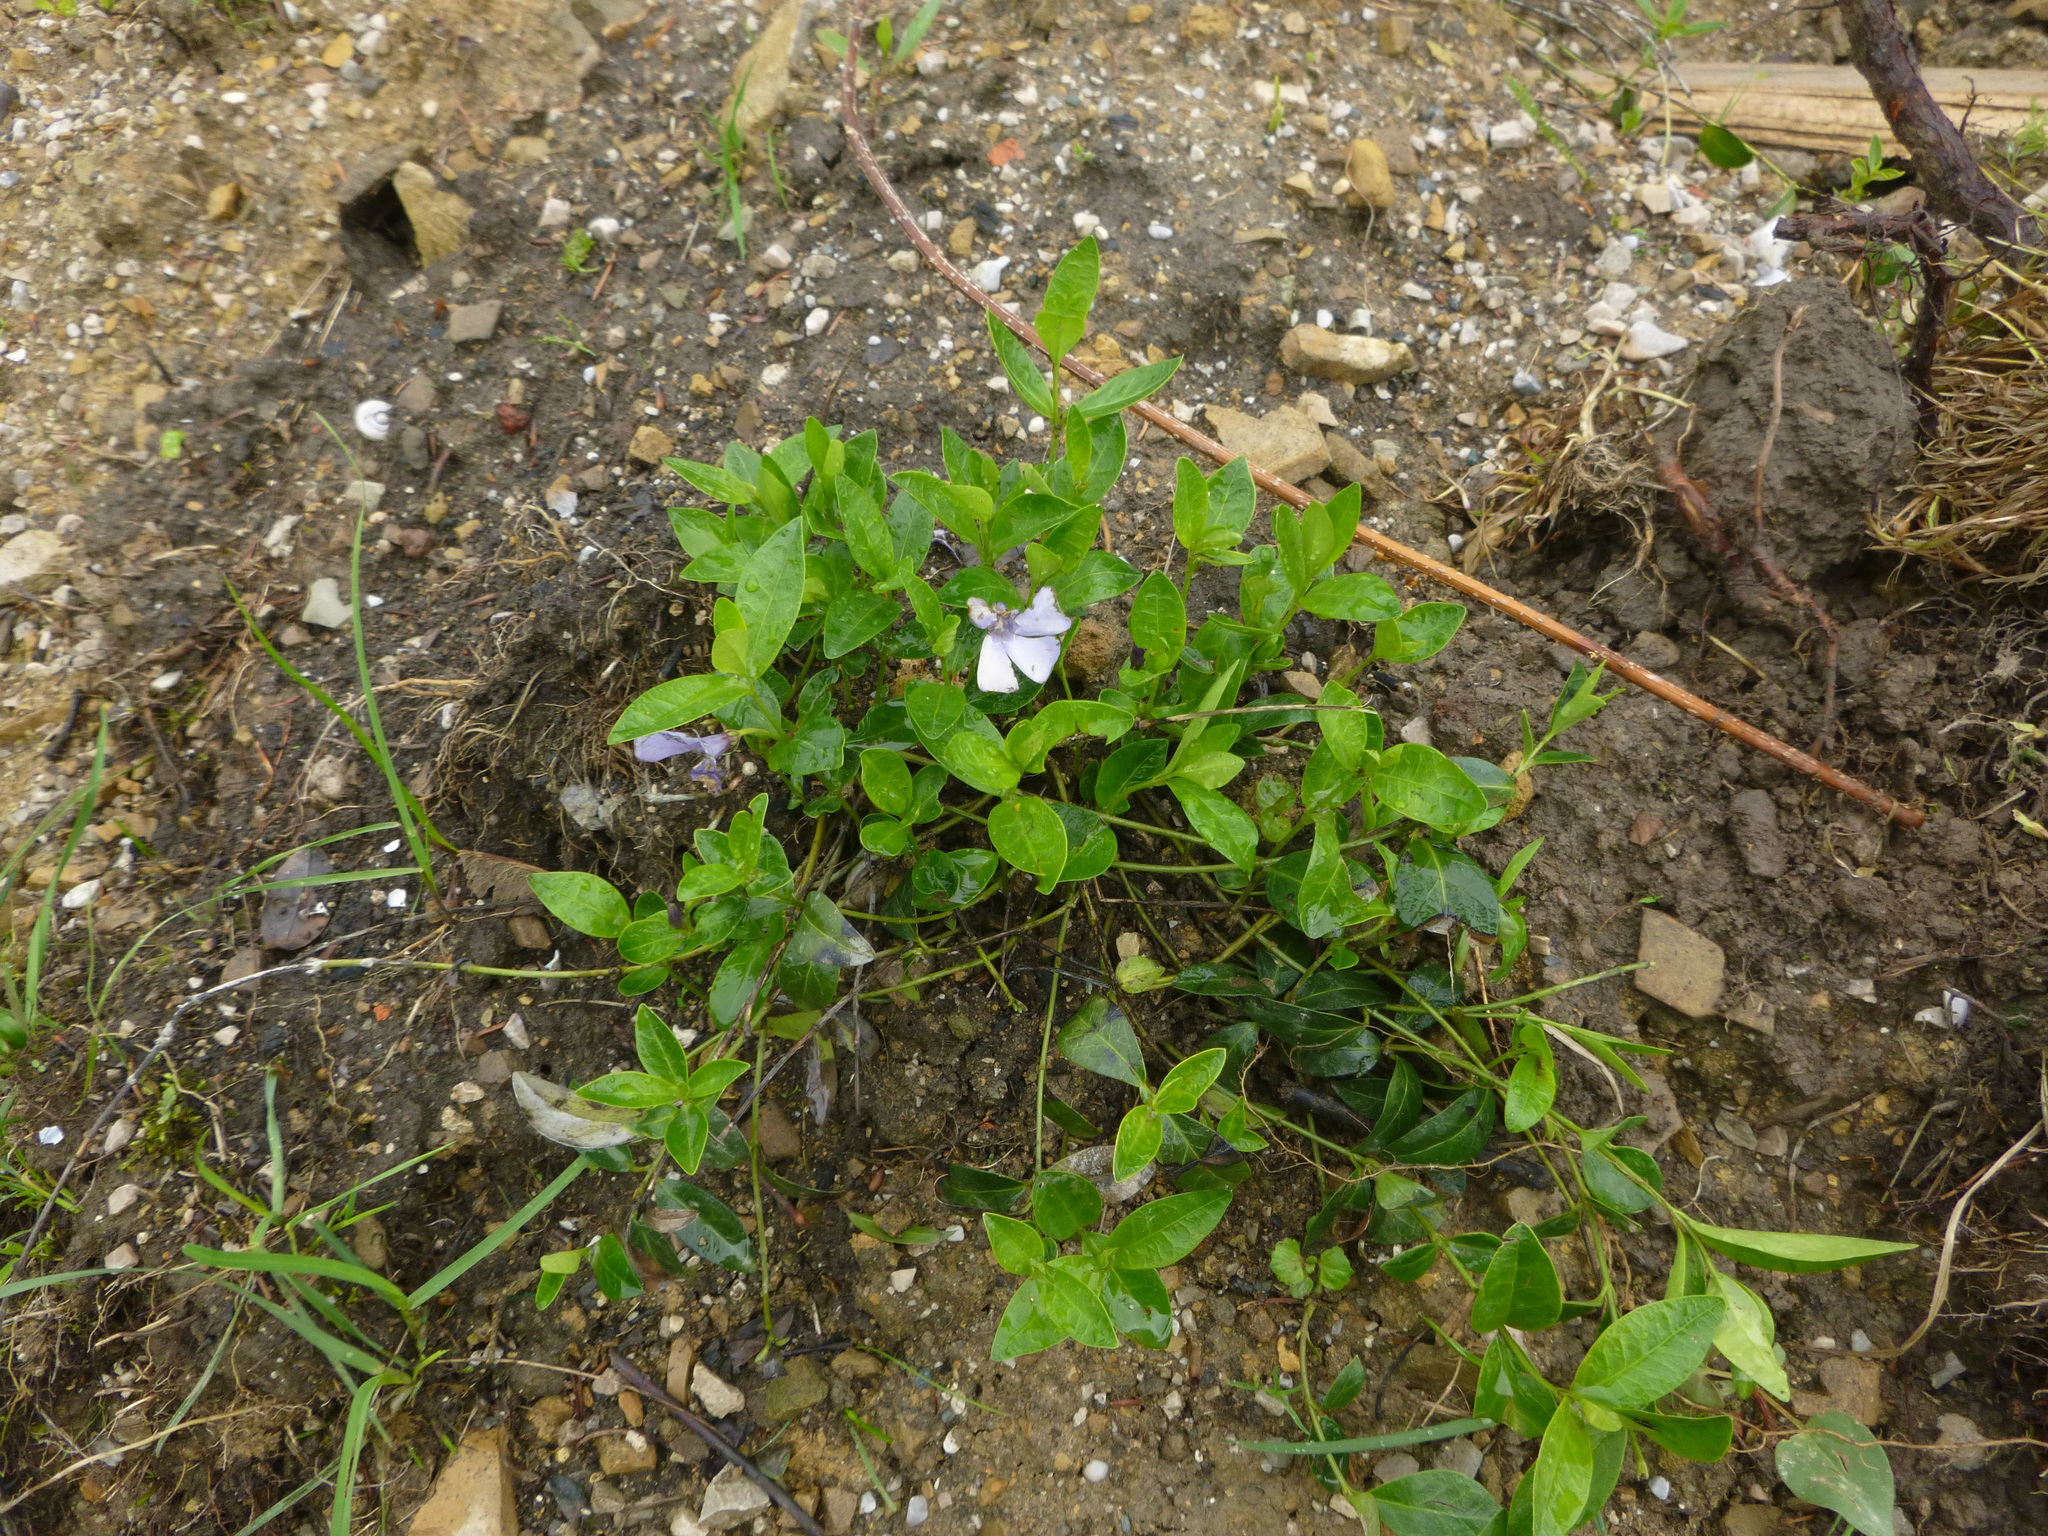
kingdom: Plantae
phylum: Tracheophyta
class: Magnoliopsida
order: Gentianales
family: Apocynaceae
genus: Vinca
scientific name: Vinca minor
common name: Lesser periwinkle
